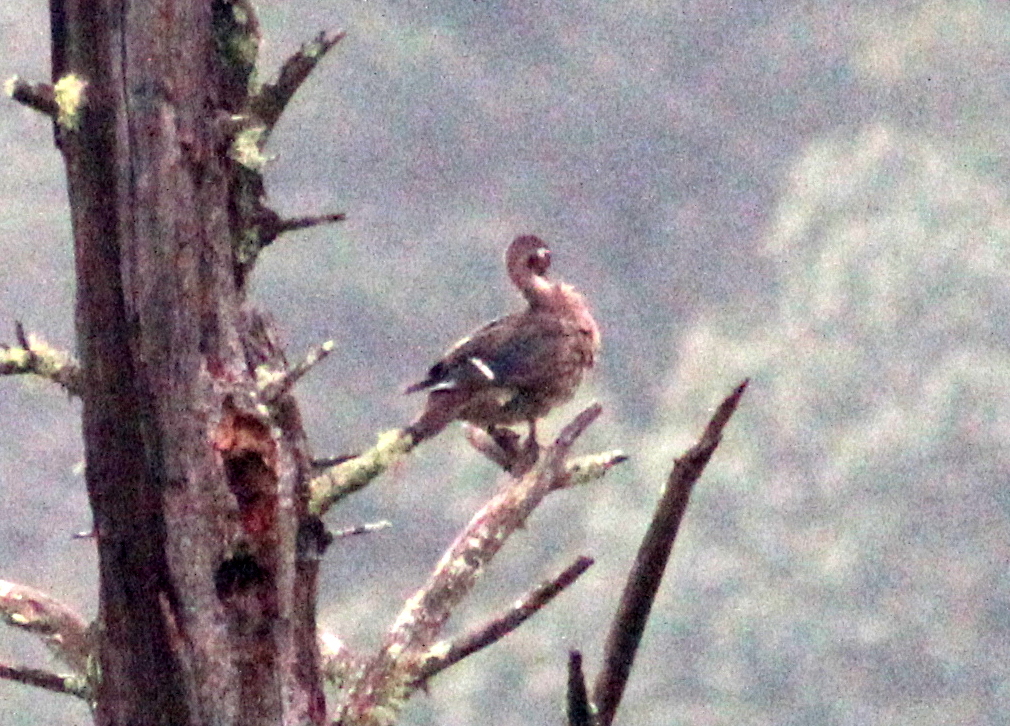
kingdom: Animalia
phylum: Chordata
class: Aves
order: Anseriformes
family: Anatidae
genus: Aix
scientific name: Aix sponsa
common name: Wood duck
